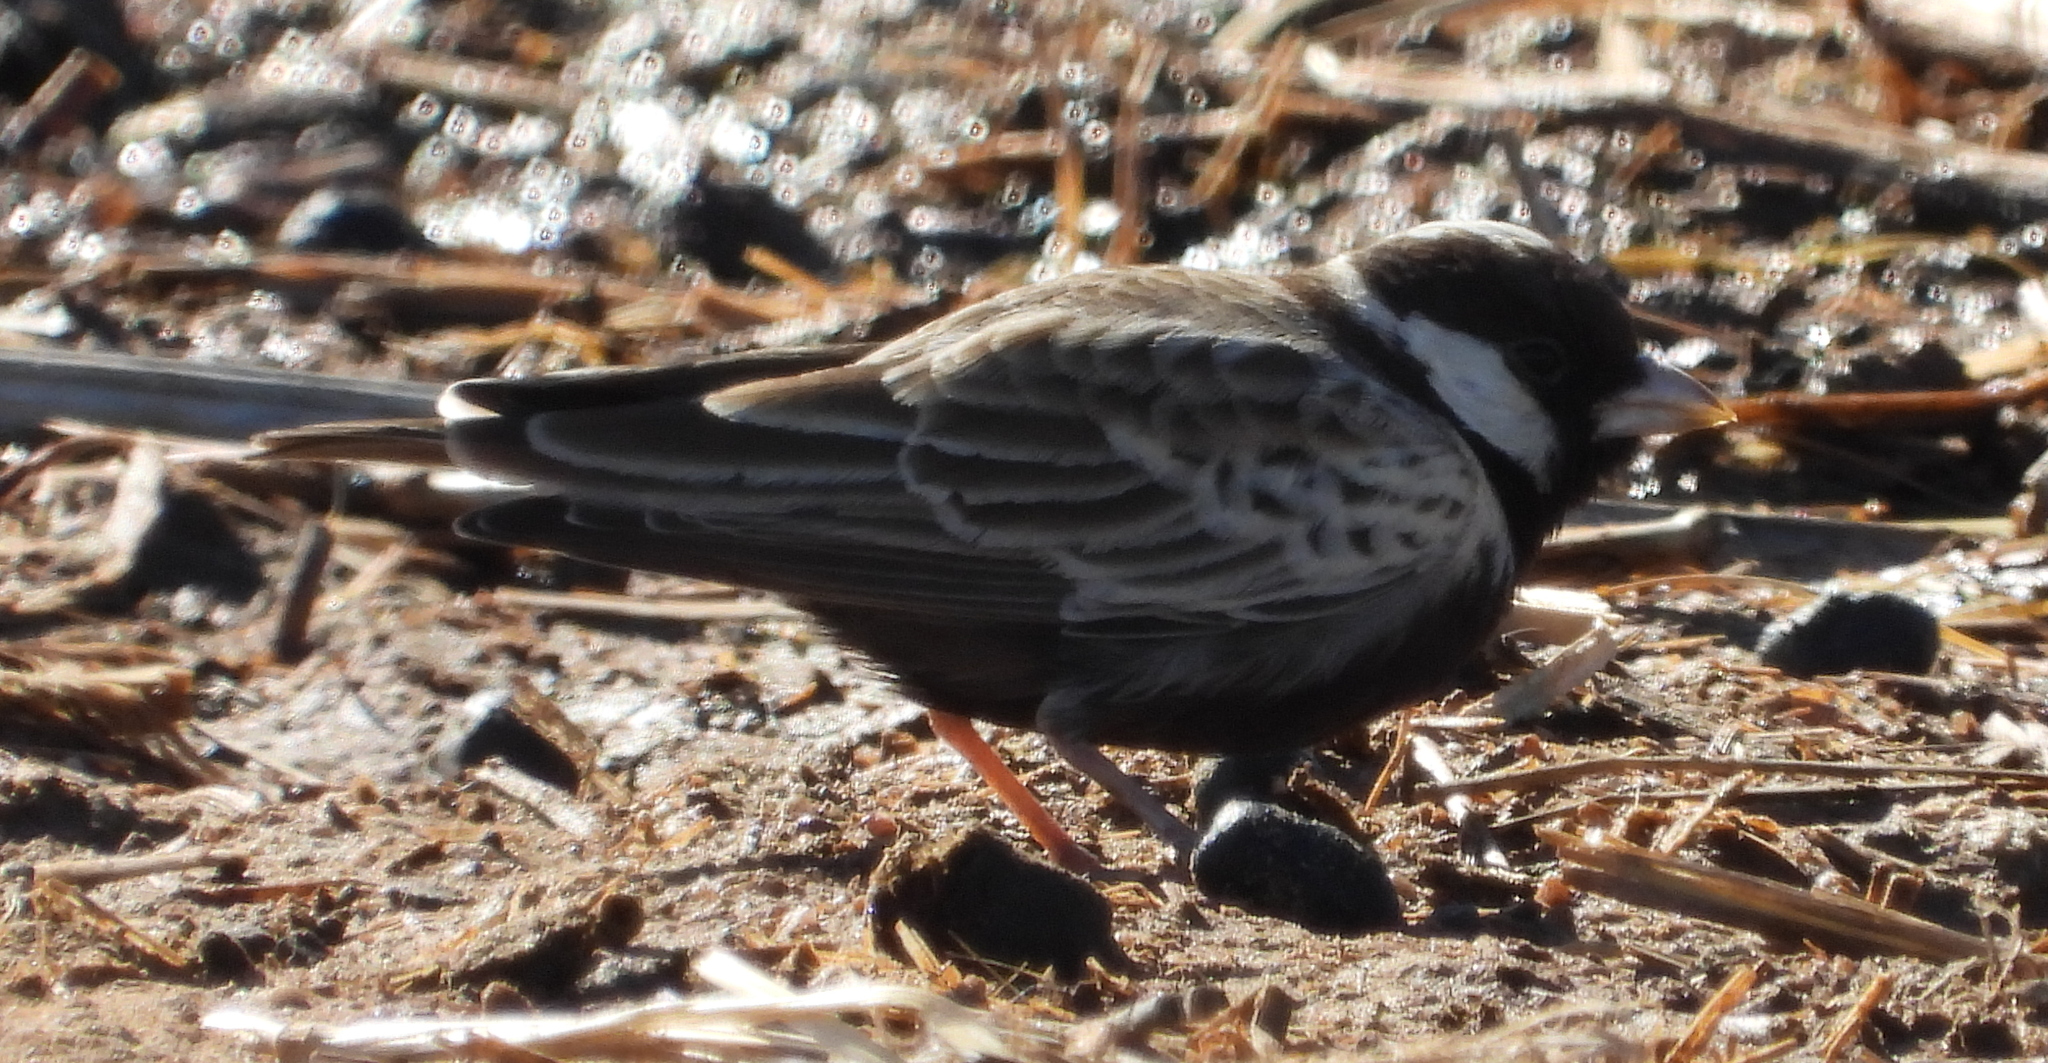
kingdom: Animalia
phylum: Chordata
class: Aves
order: Passeriformes
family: Alaudidae
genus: Eremopterix
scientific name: Eremopterix verticalis
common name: Grey-backed sparrow-lark
